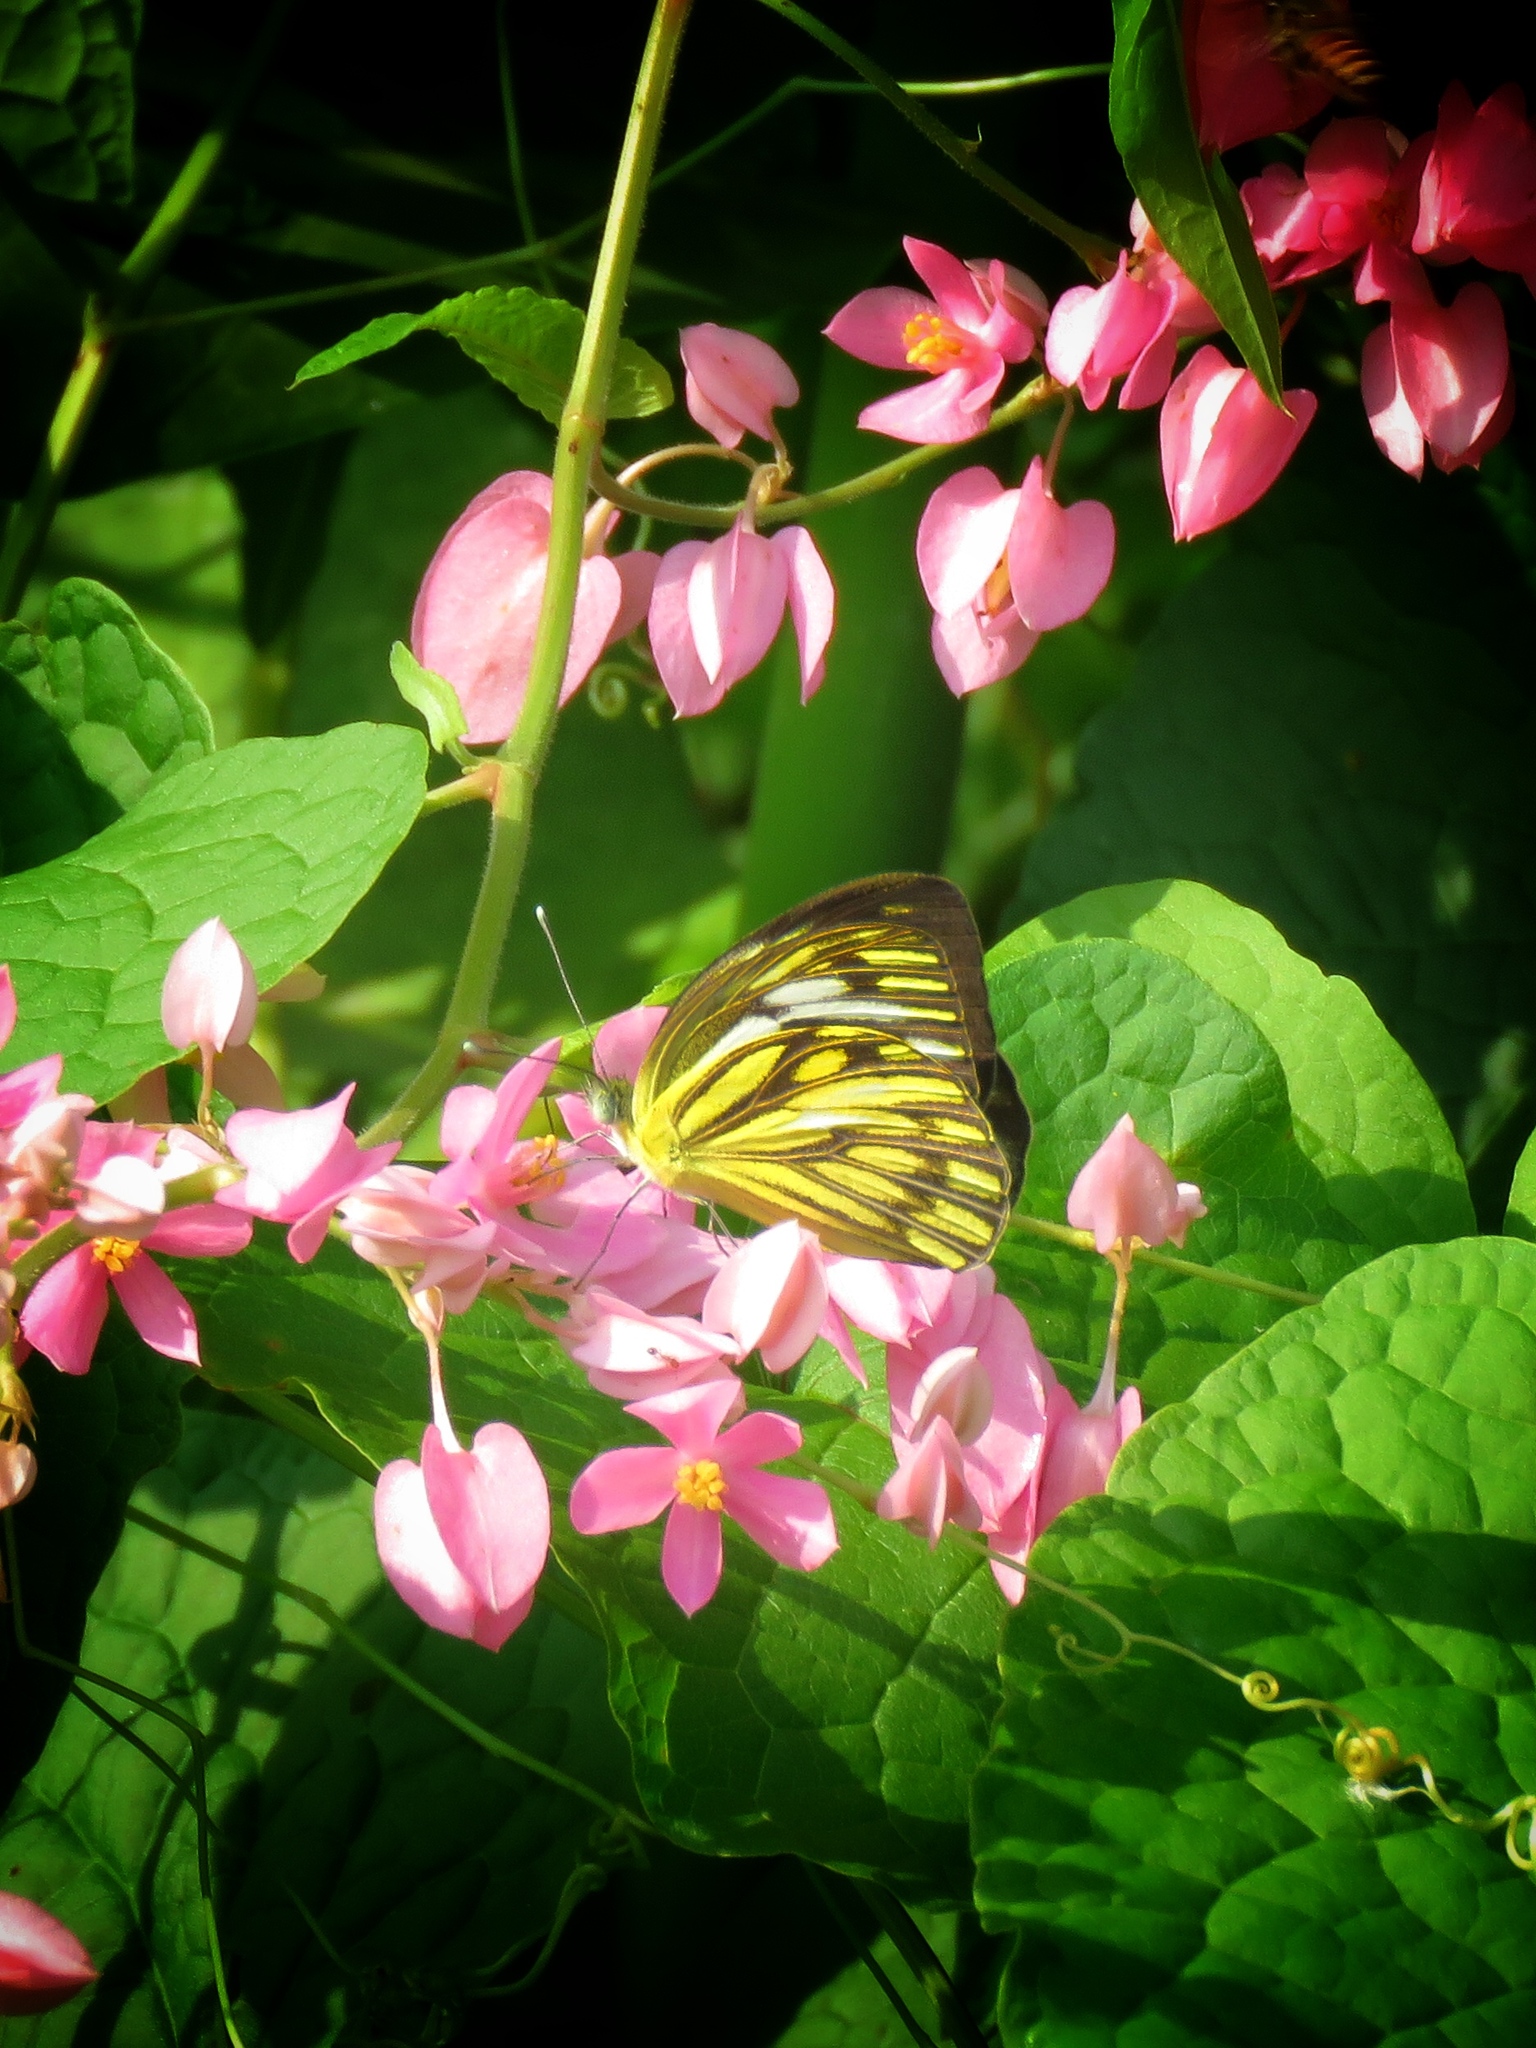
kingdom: Animalia
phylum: Arthropoda
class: Insecta
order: Lepidoptera
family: Pieridae
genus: Cepora
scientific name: Cepora nerissa
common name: Common gull
